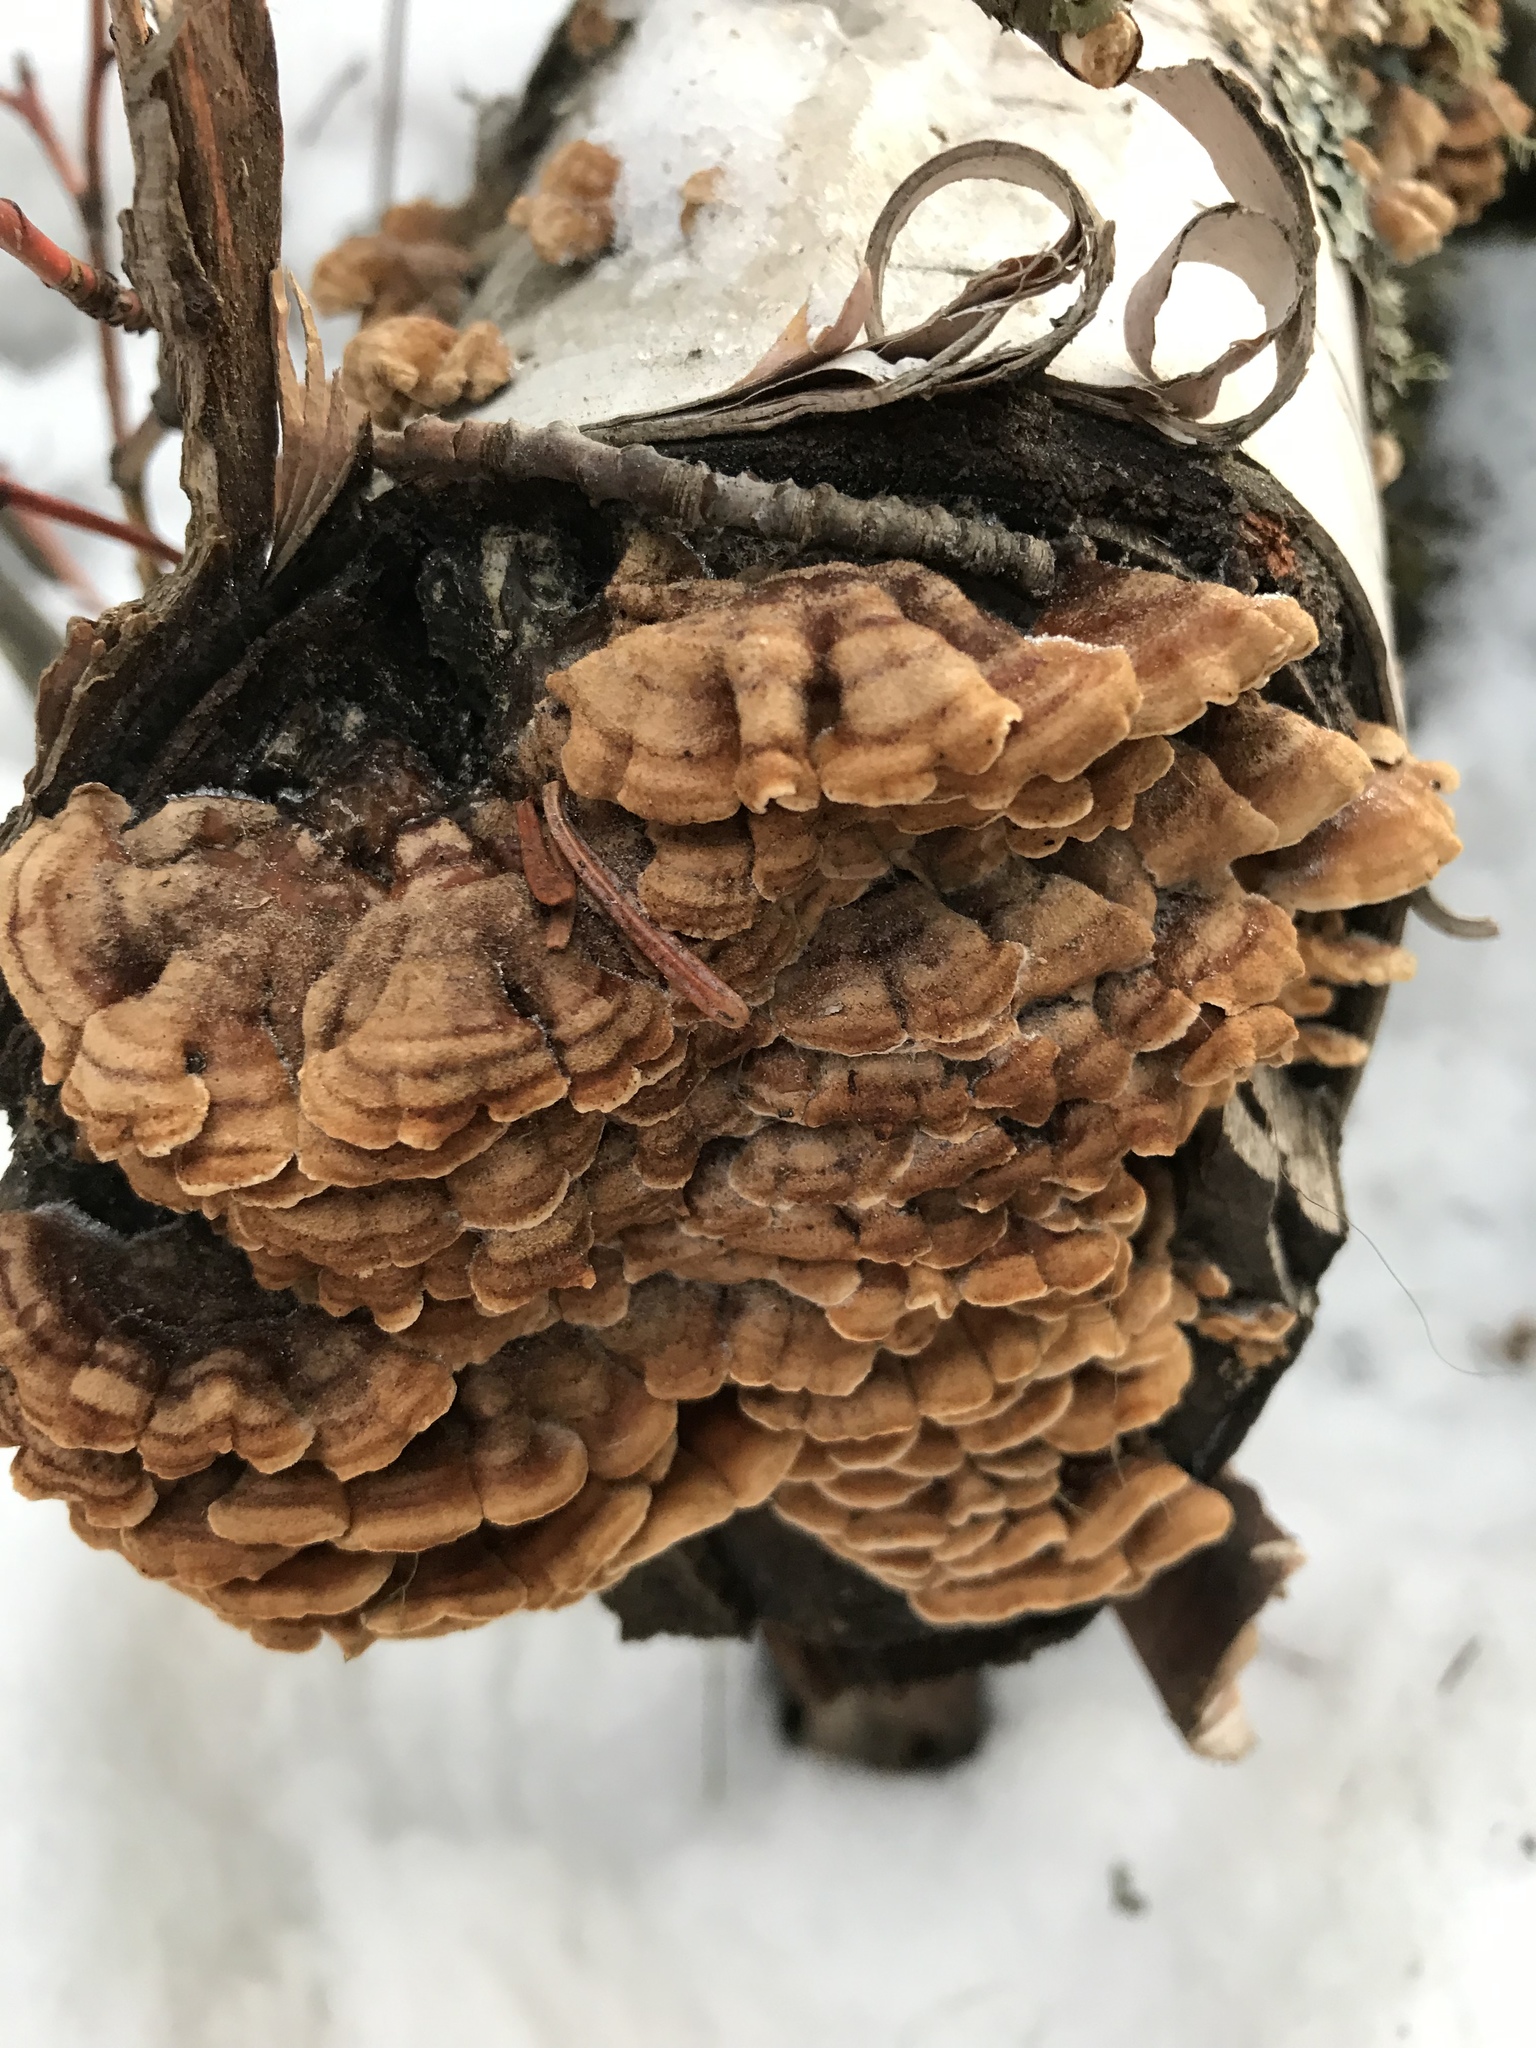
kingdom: Fungi
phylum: Basidiomycota
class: Agaricomycetes
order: Amylocorticiales
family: Amylocorticiaceae
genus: Plicaturopsis
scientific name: Plicaturopsis crispa
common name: Crimped gill
